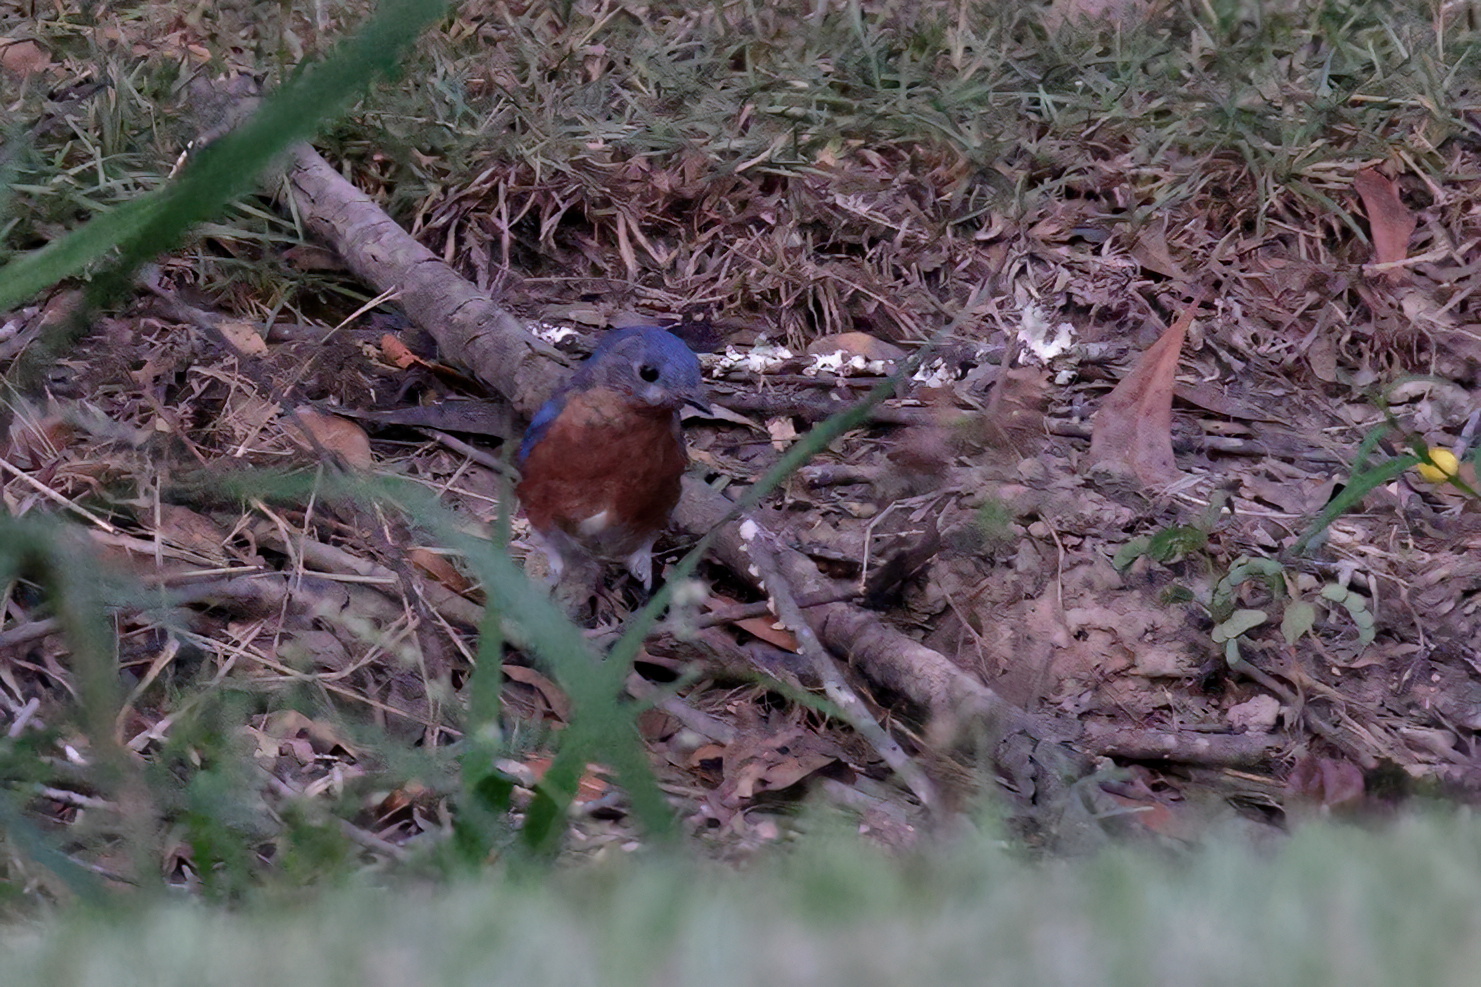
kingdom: Animalia
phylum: Chordata
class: Aves
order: Passeriformes
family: Turdidae
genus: Sialia
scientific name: Sialia sialis
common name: Eastern bluebird
